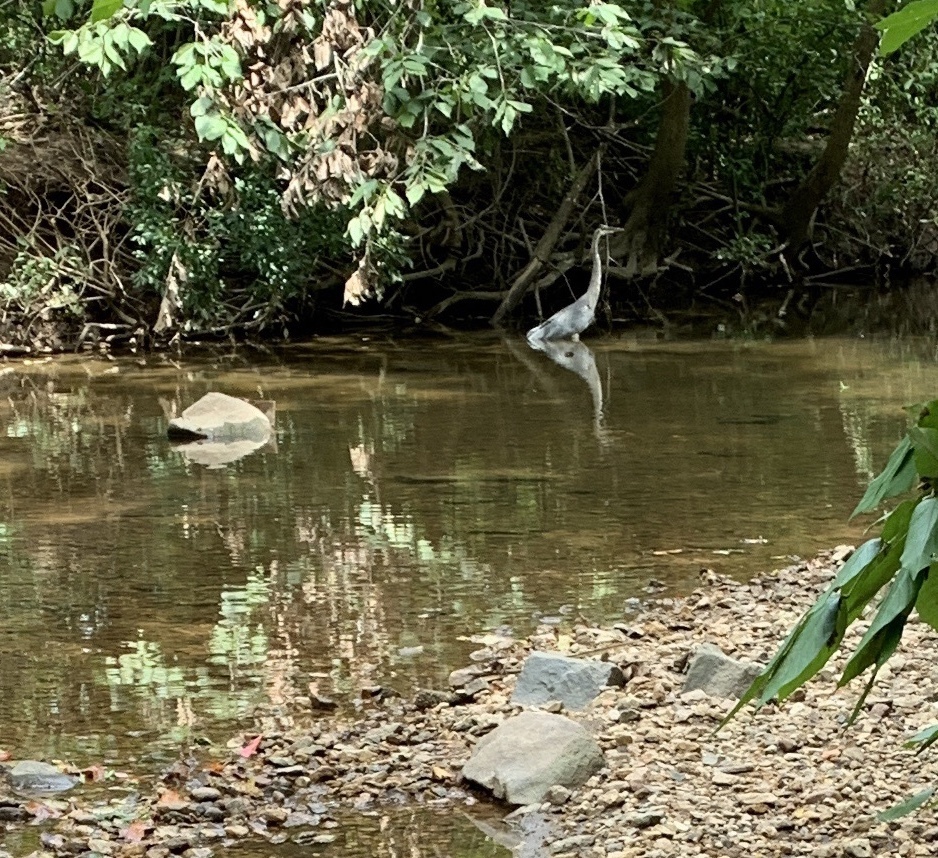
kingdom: Animalia
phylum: Chordata
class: Aves
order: Pelecaniformes
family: Ardeidae
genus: Ardea
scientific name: Ardea herodias
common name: Great blue heron
